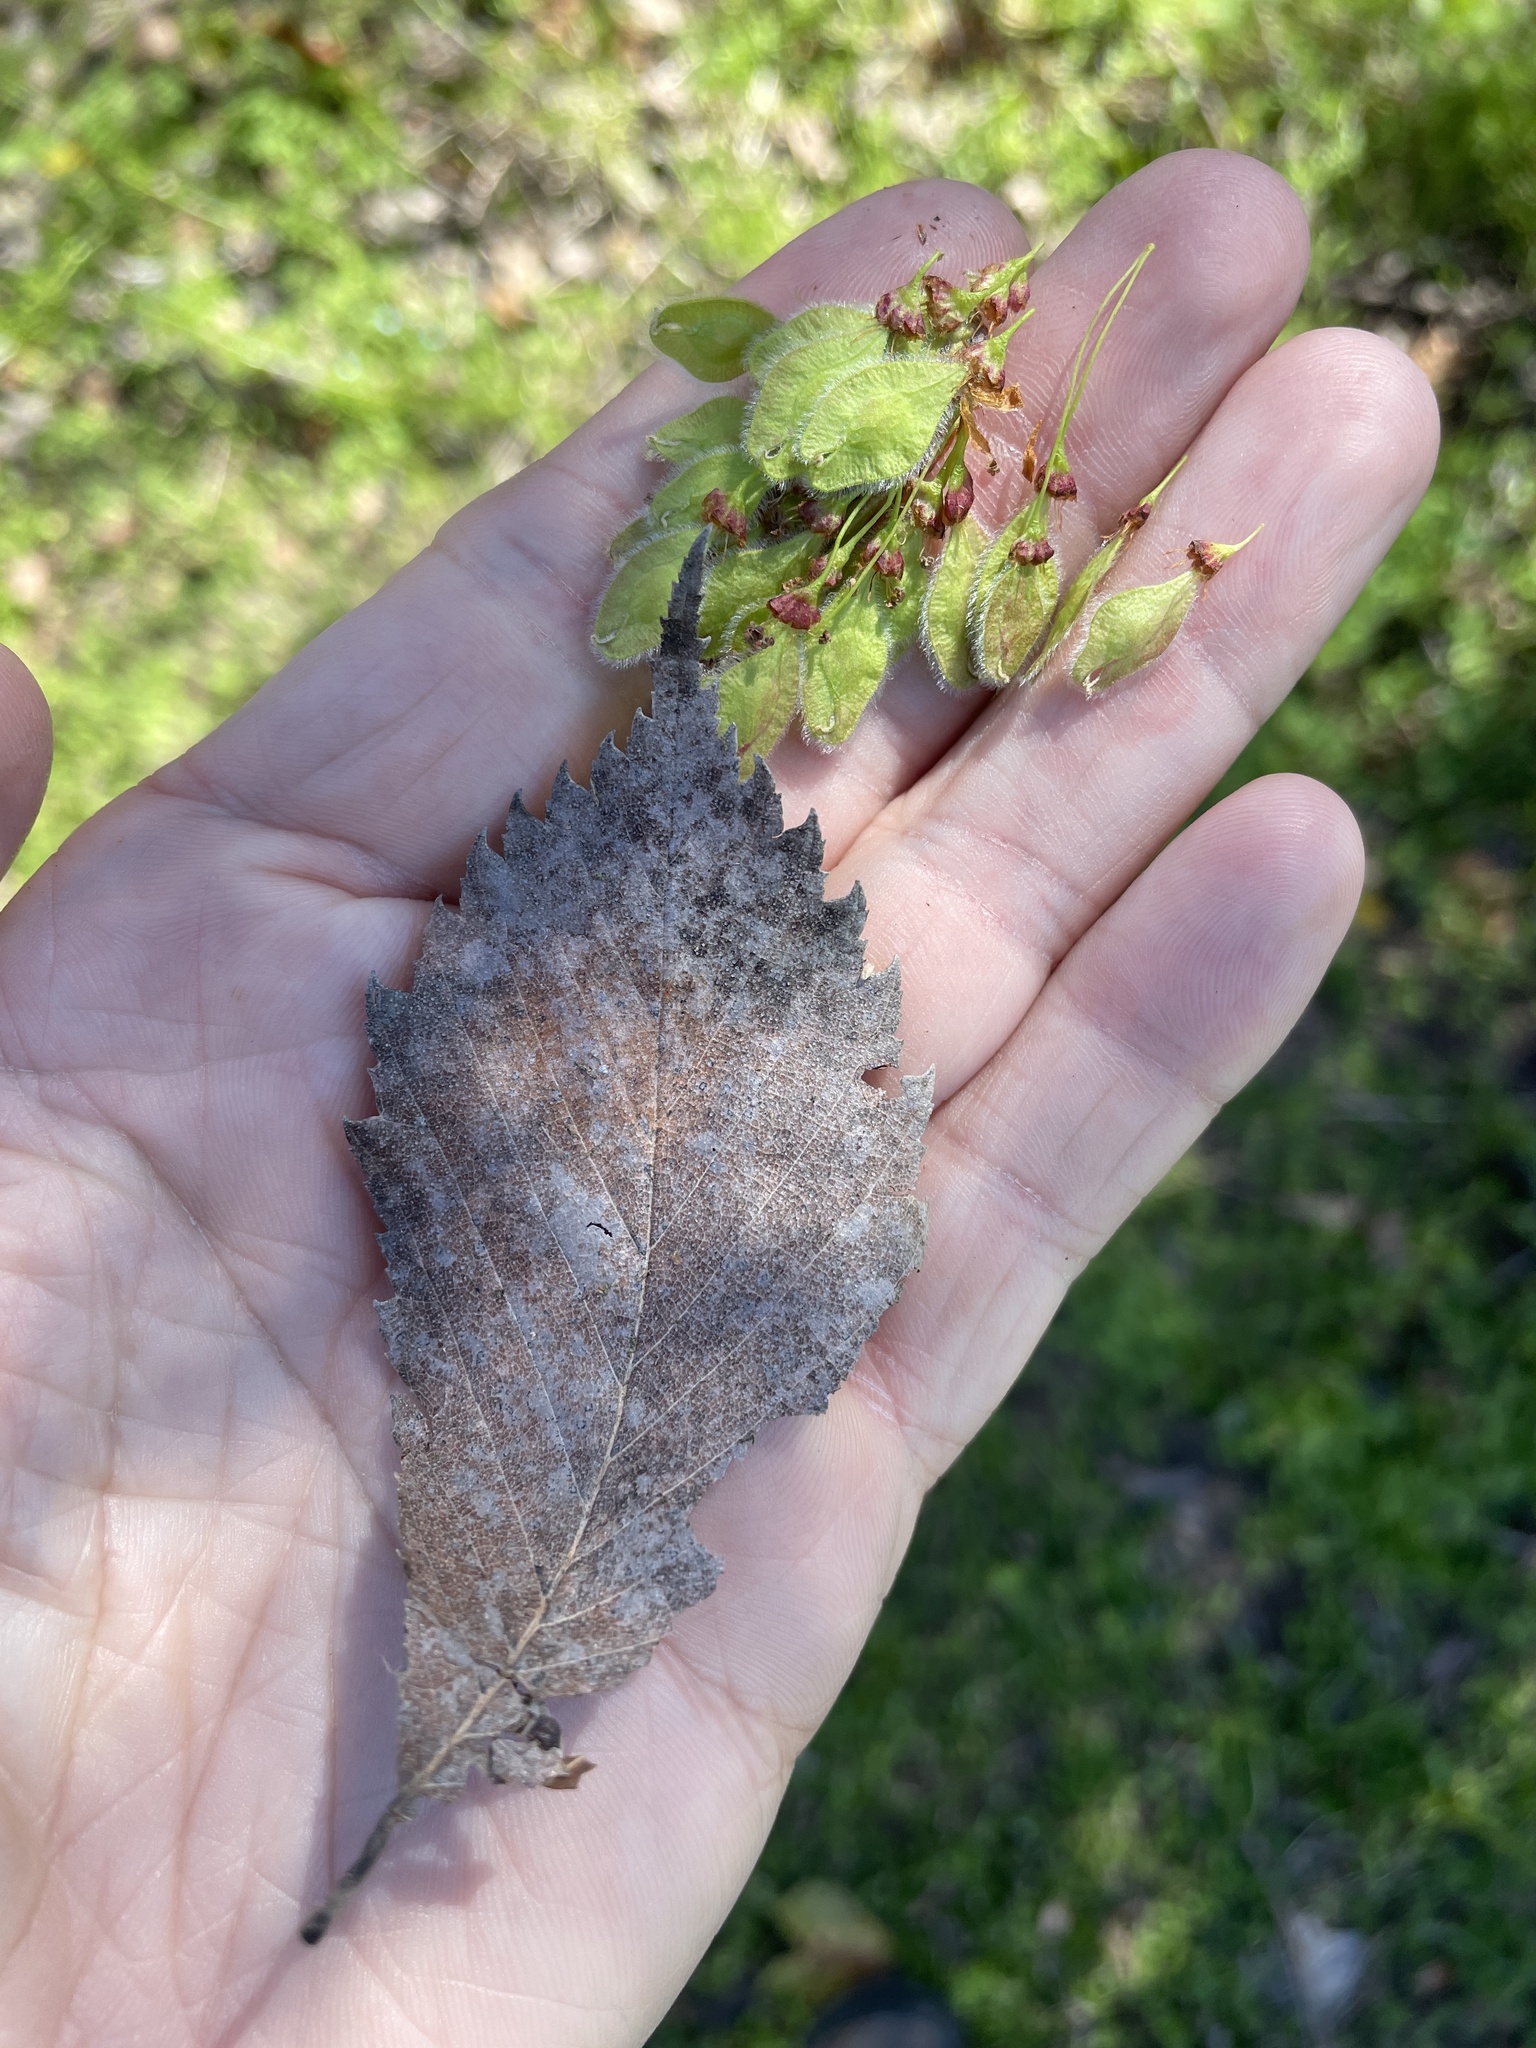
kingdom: Plantae
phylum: Tracheophyta
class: Magnoliopsida
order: Rosales
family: Ulmaceae
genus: Ulmus
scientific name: Ulmus americana
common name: American elm
